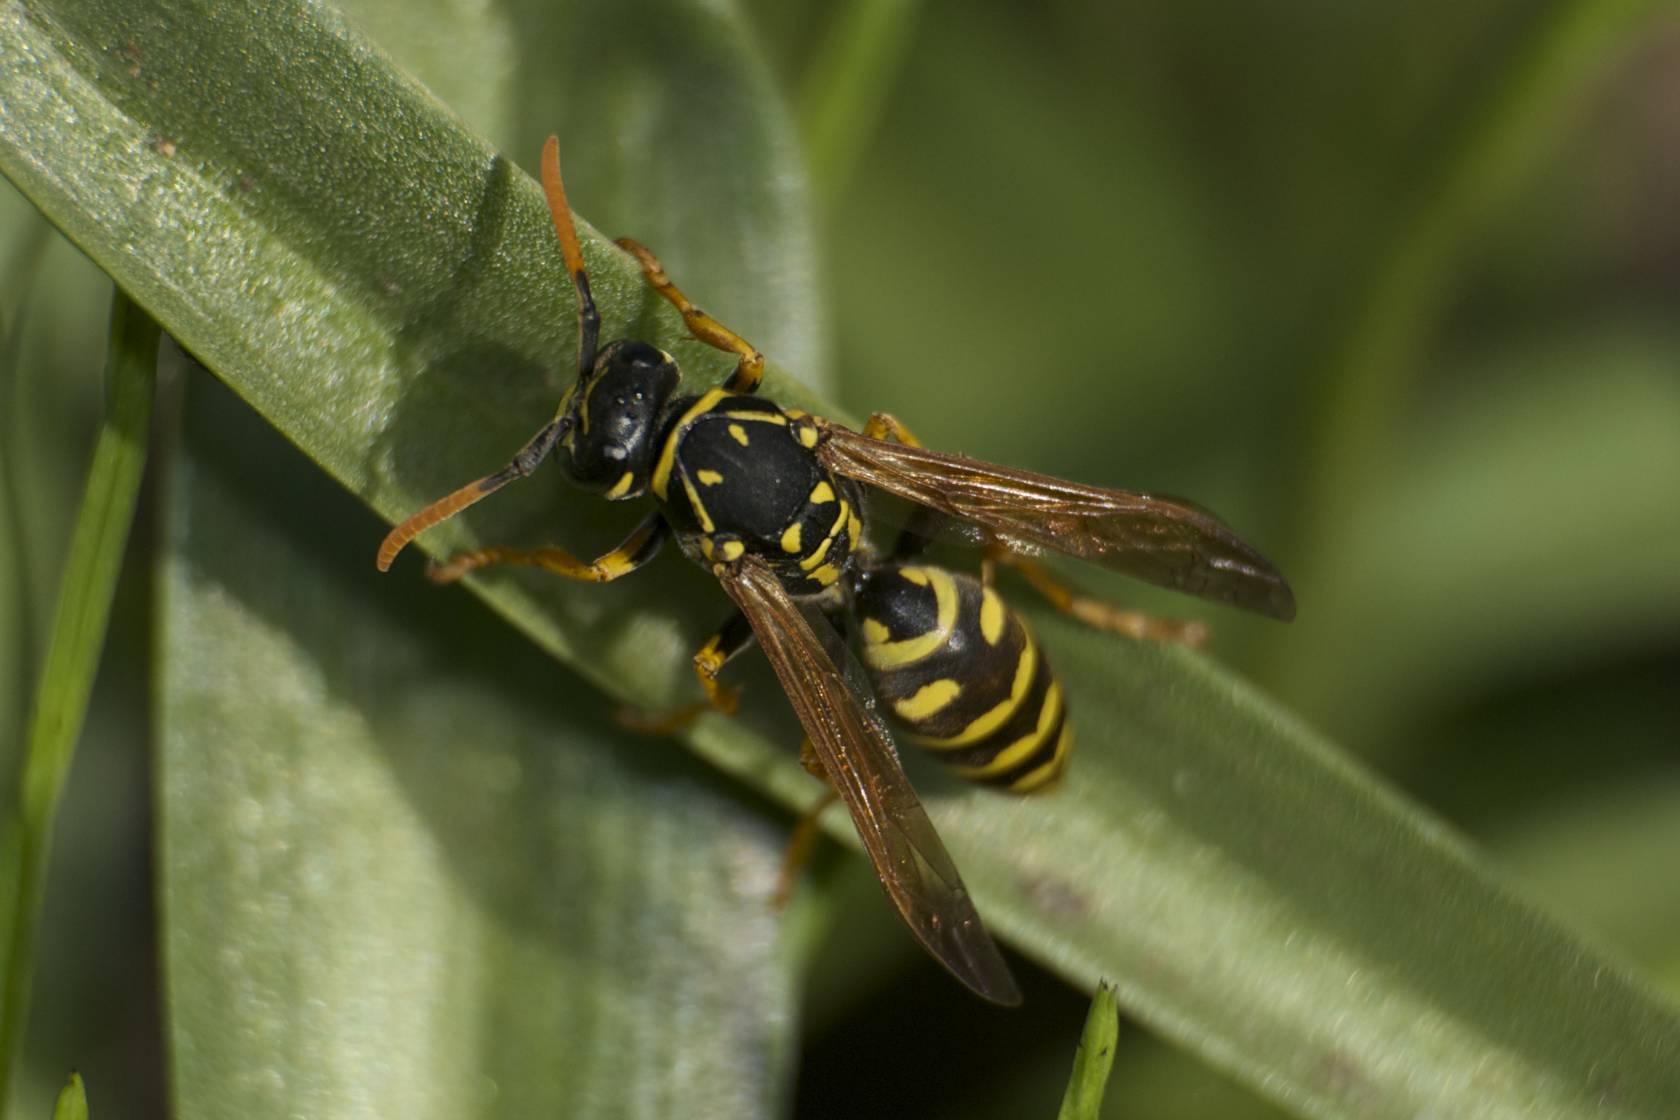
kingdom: Animalia
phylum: Arthropoda
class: Insecta
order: Hymenoptera
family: Eumenidae
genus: Polistes
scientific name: Polistes dominula
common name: Paper wasp
